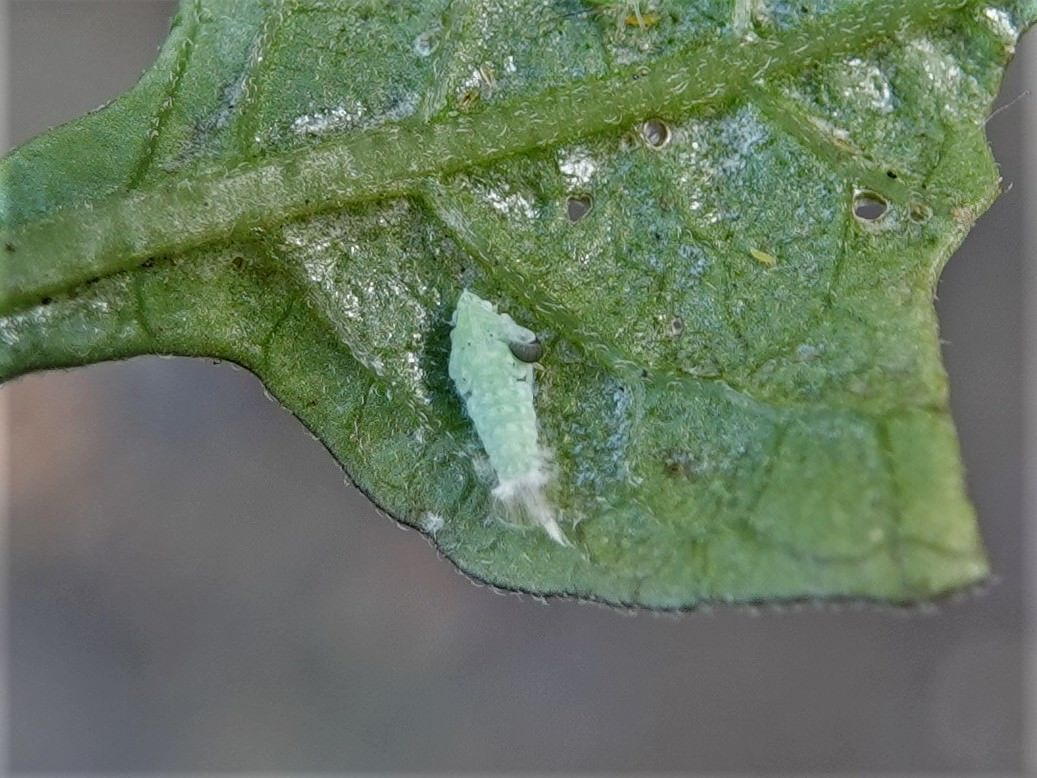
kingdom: Animalia
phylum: Arthropoda
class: Insecta
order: Hemiptera
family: Flatidae
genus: Siphanta
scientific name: Siphanta acuta
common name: Torpedo bug
